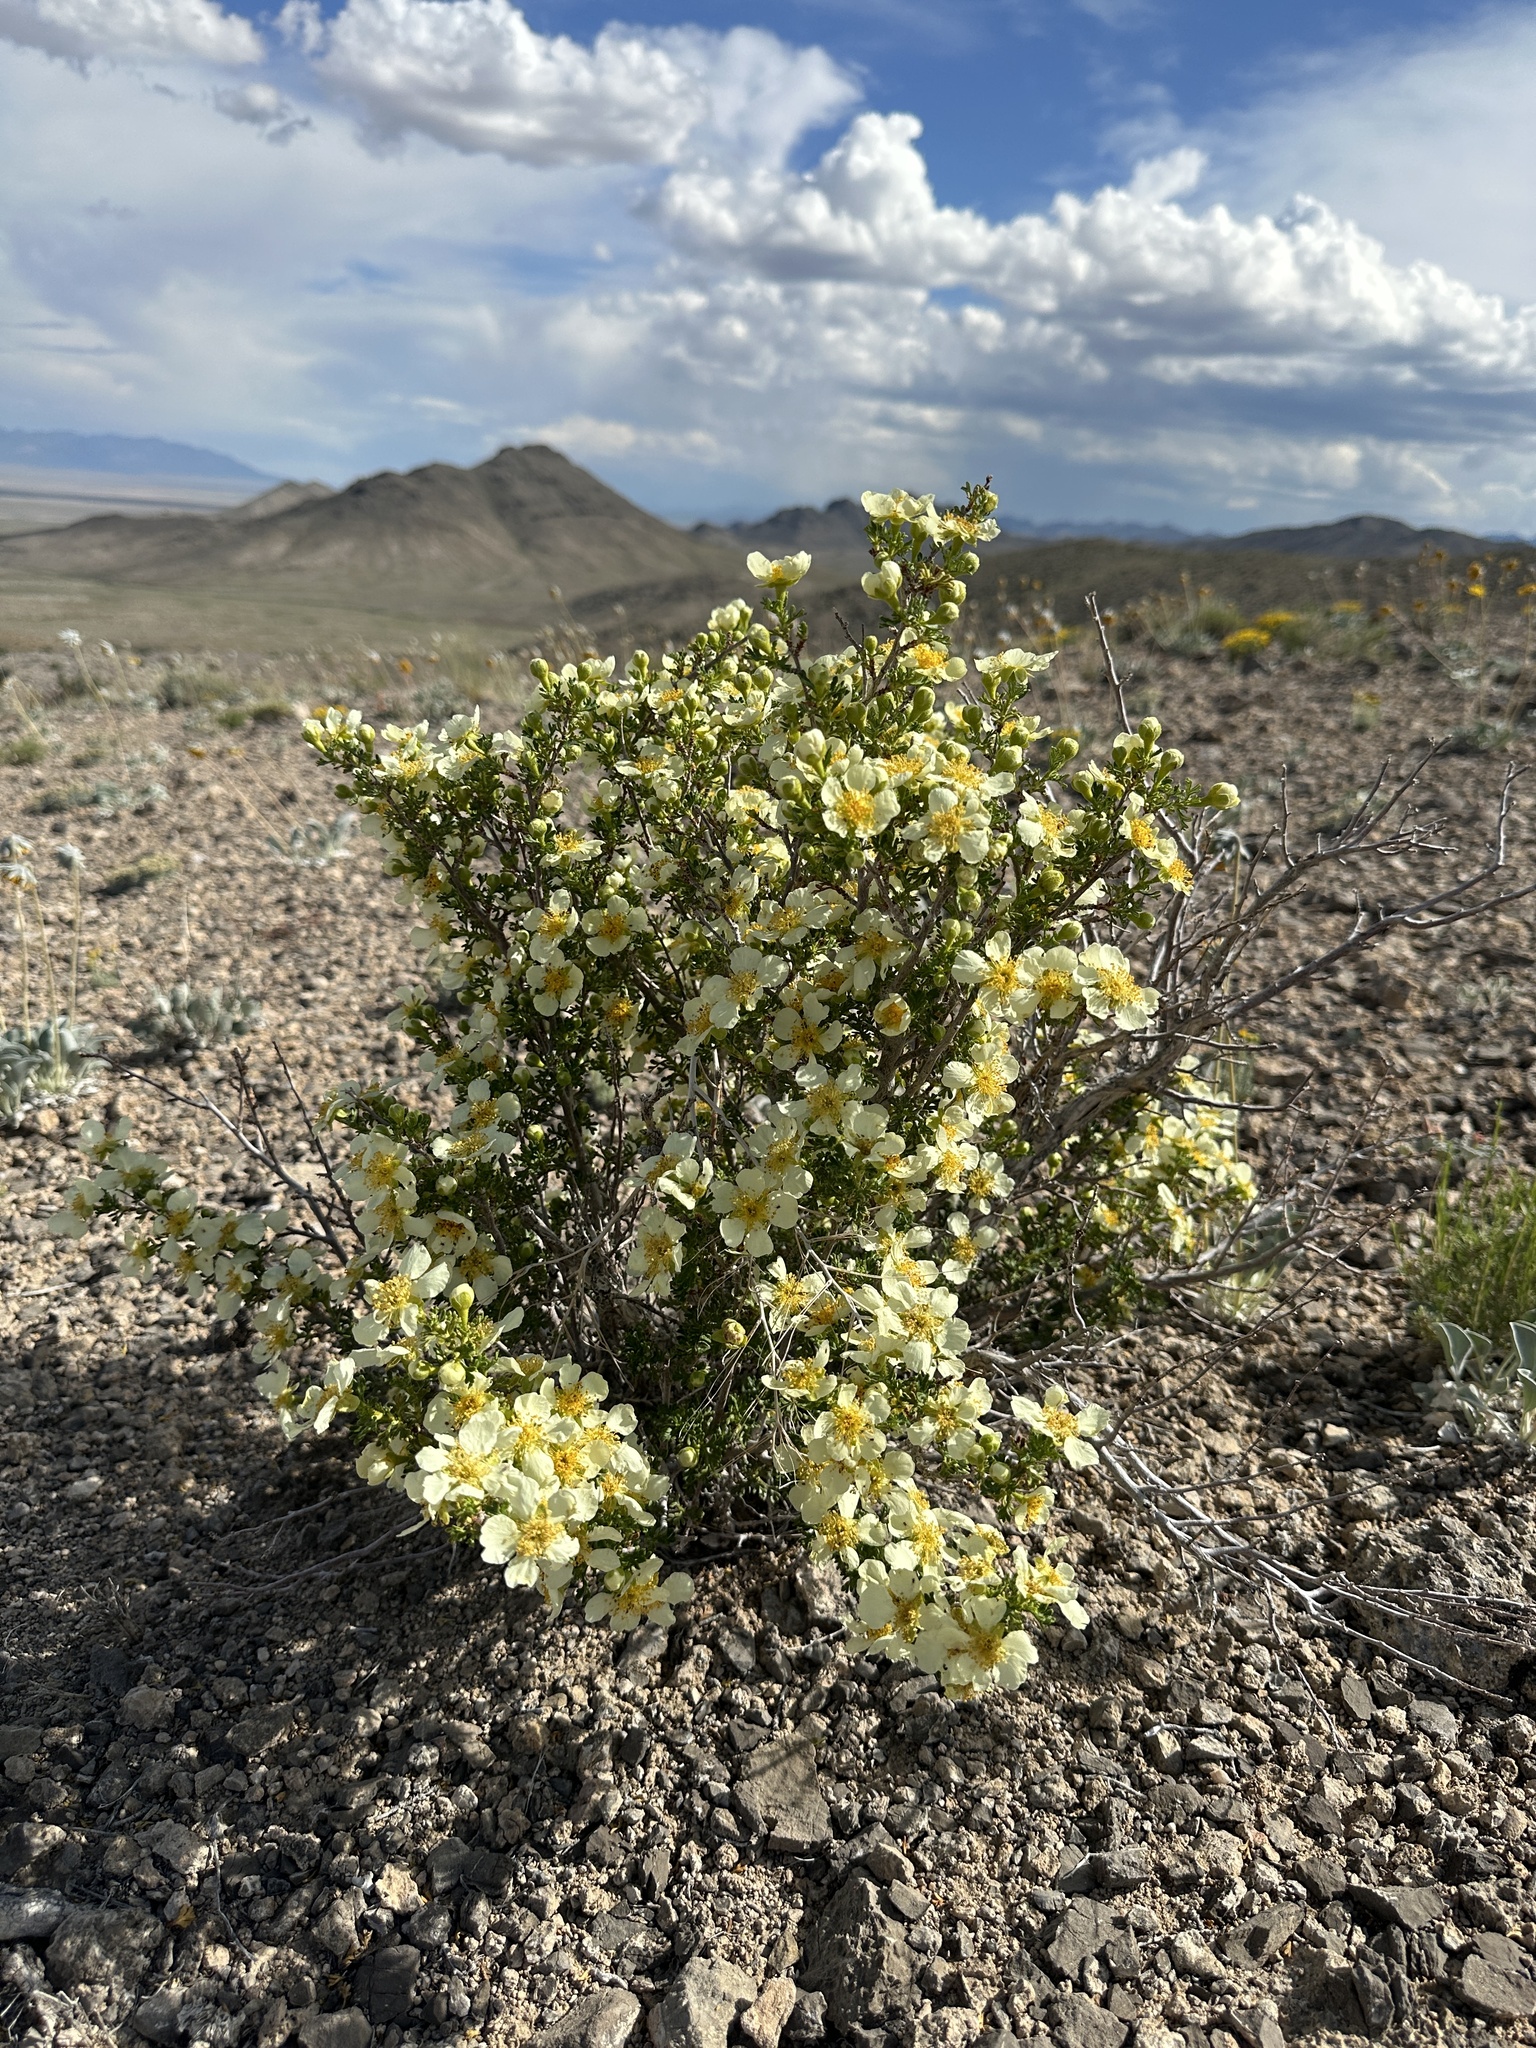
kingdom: Plantae
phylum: Tracheophyta
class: Magnoliopsida
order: Rosales
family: Rosaceae
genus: Purshia
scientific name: Purshia stansburiana
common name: Stansbury's cliffrose
